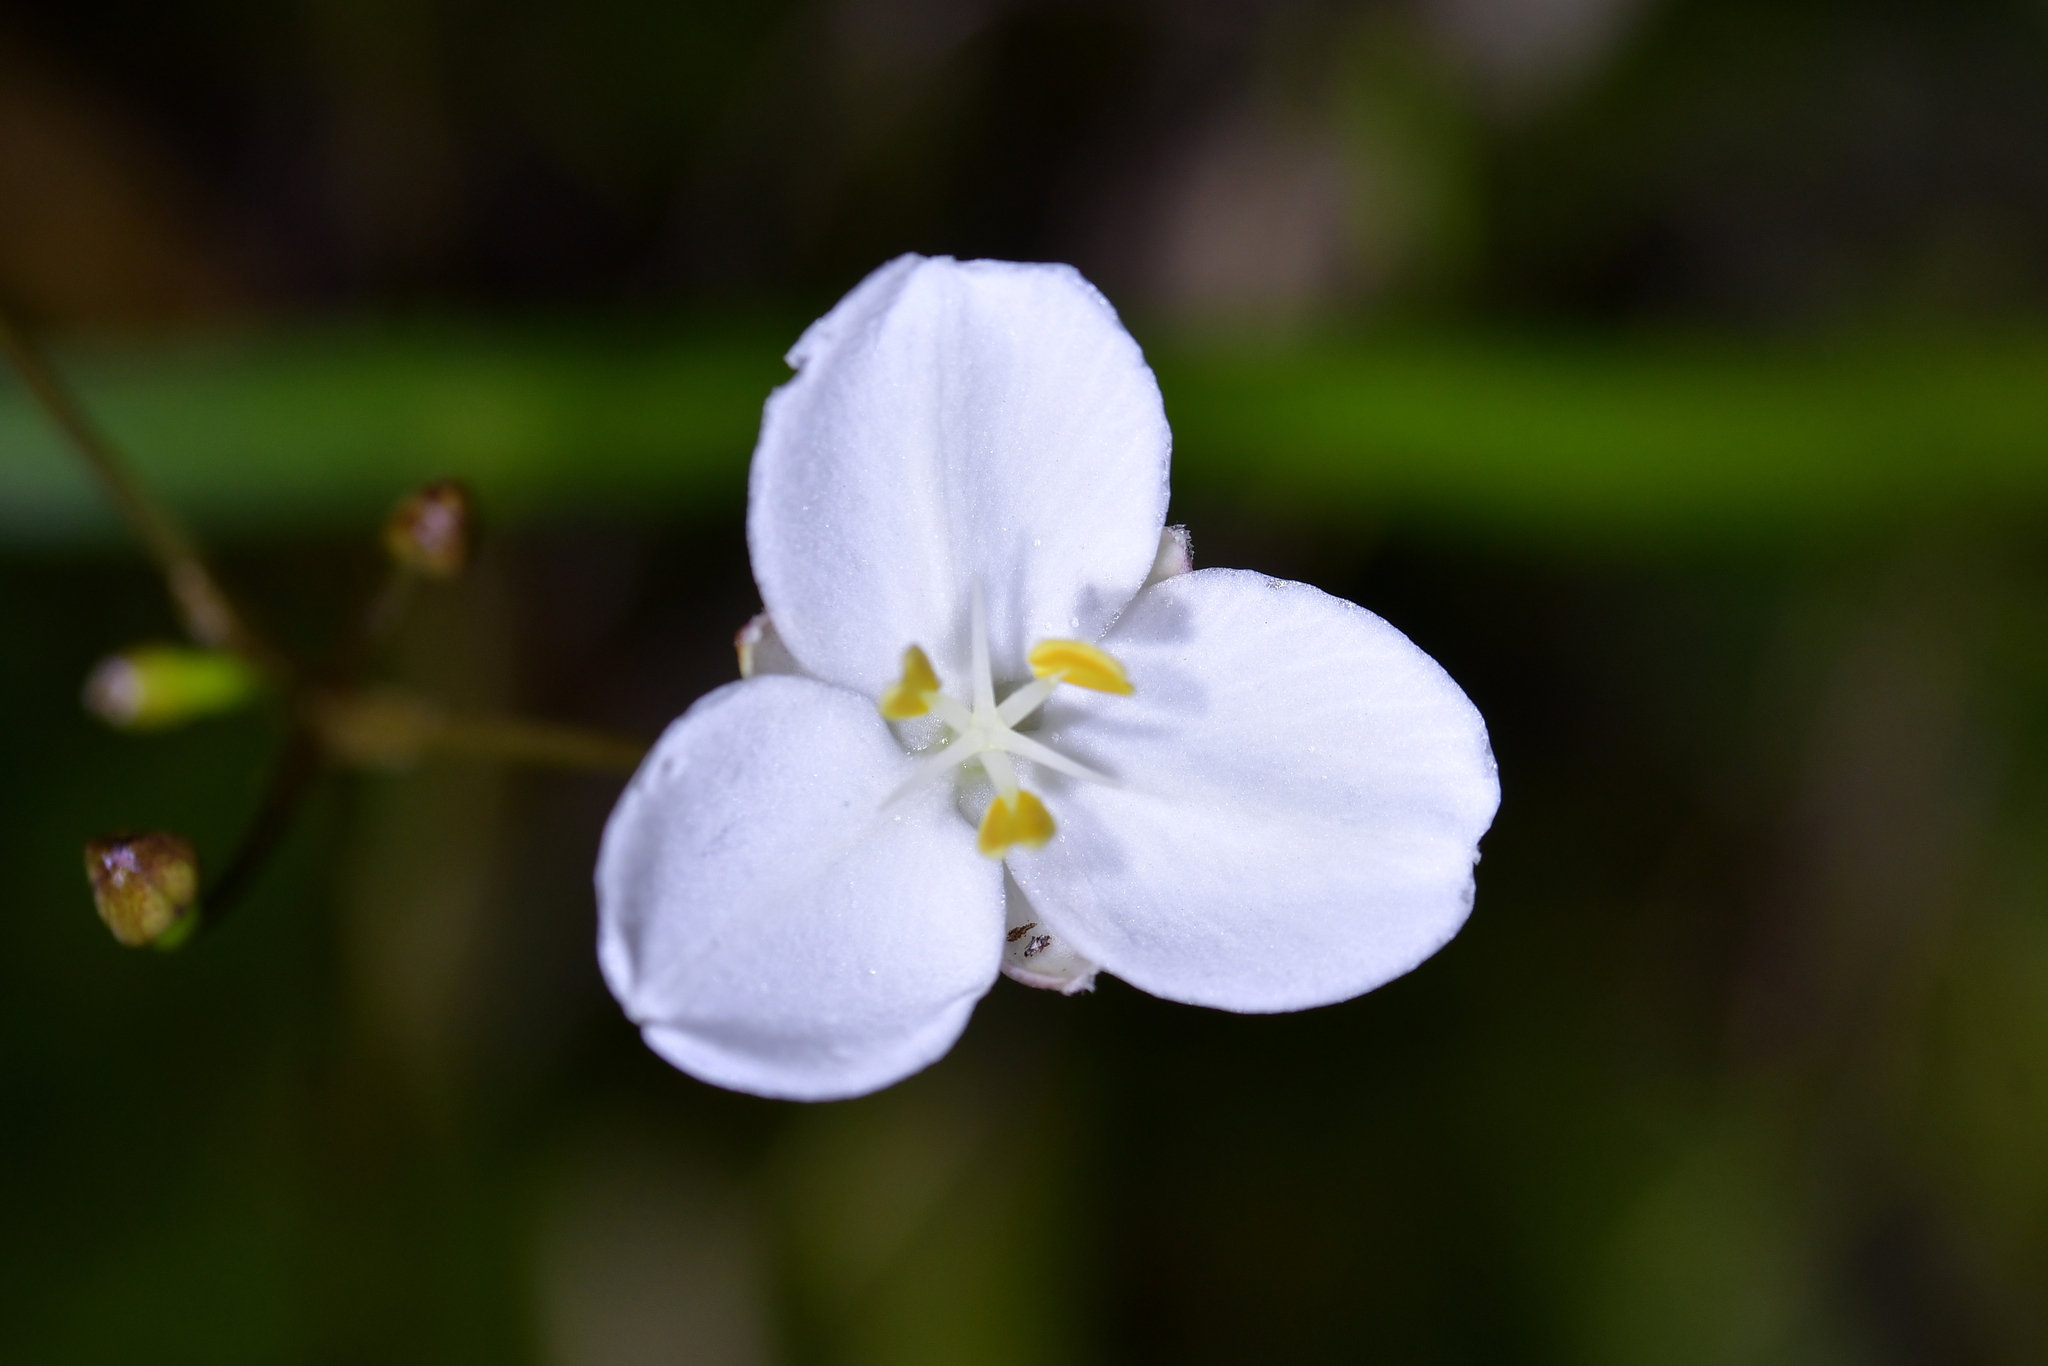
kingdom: Plantae
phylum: Tracheophyta
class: Liliopsida
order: Asparagales
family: Iridaceae
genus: Libertia
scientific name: Libertia ixioides
